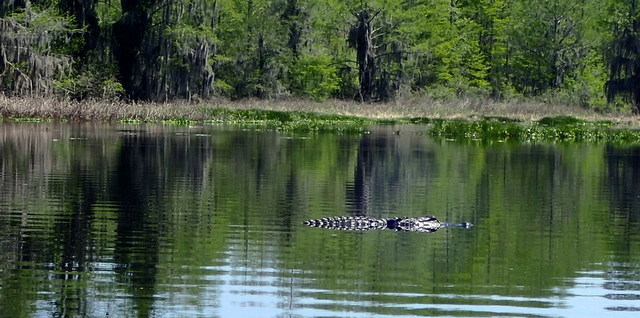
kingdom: Animalia
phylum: Chordata
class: Crocodylia
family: Alligatoridae
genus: Alligator
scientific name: Alligator mississippiensis
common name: American alligator
